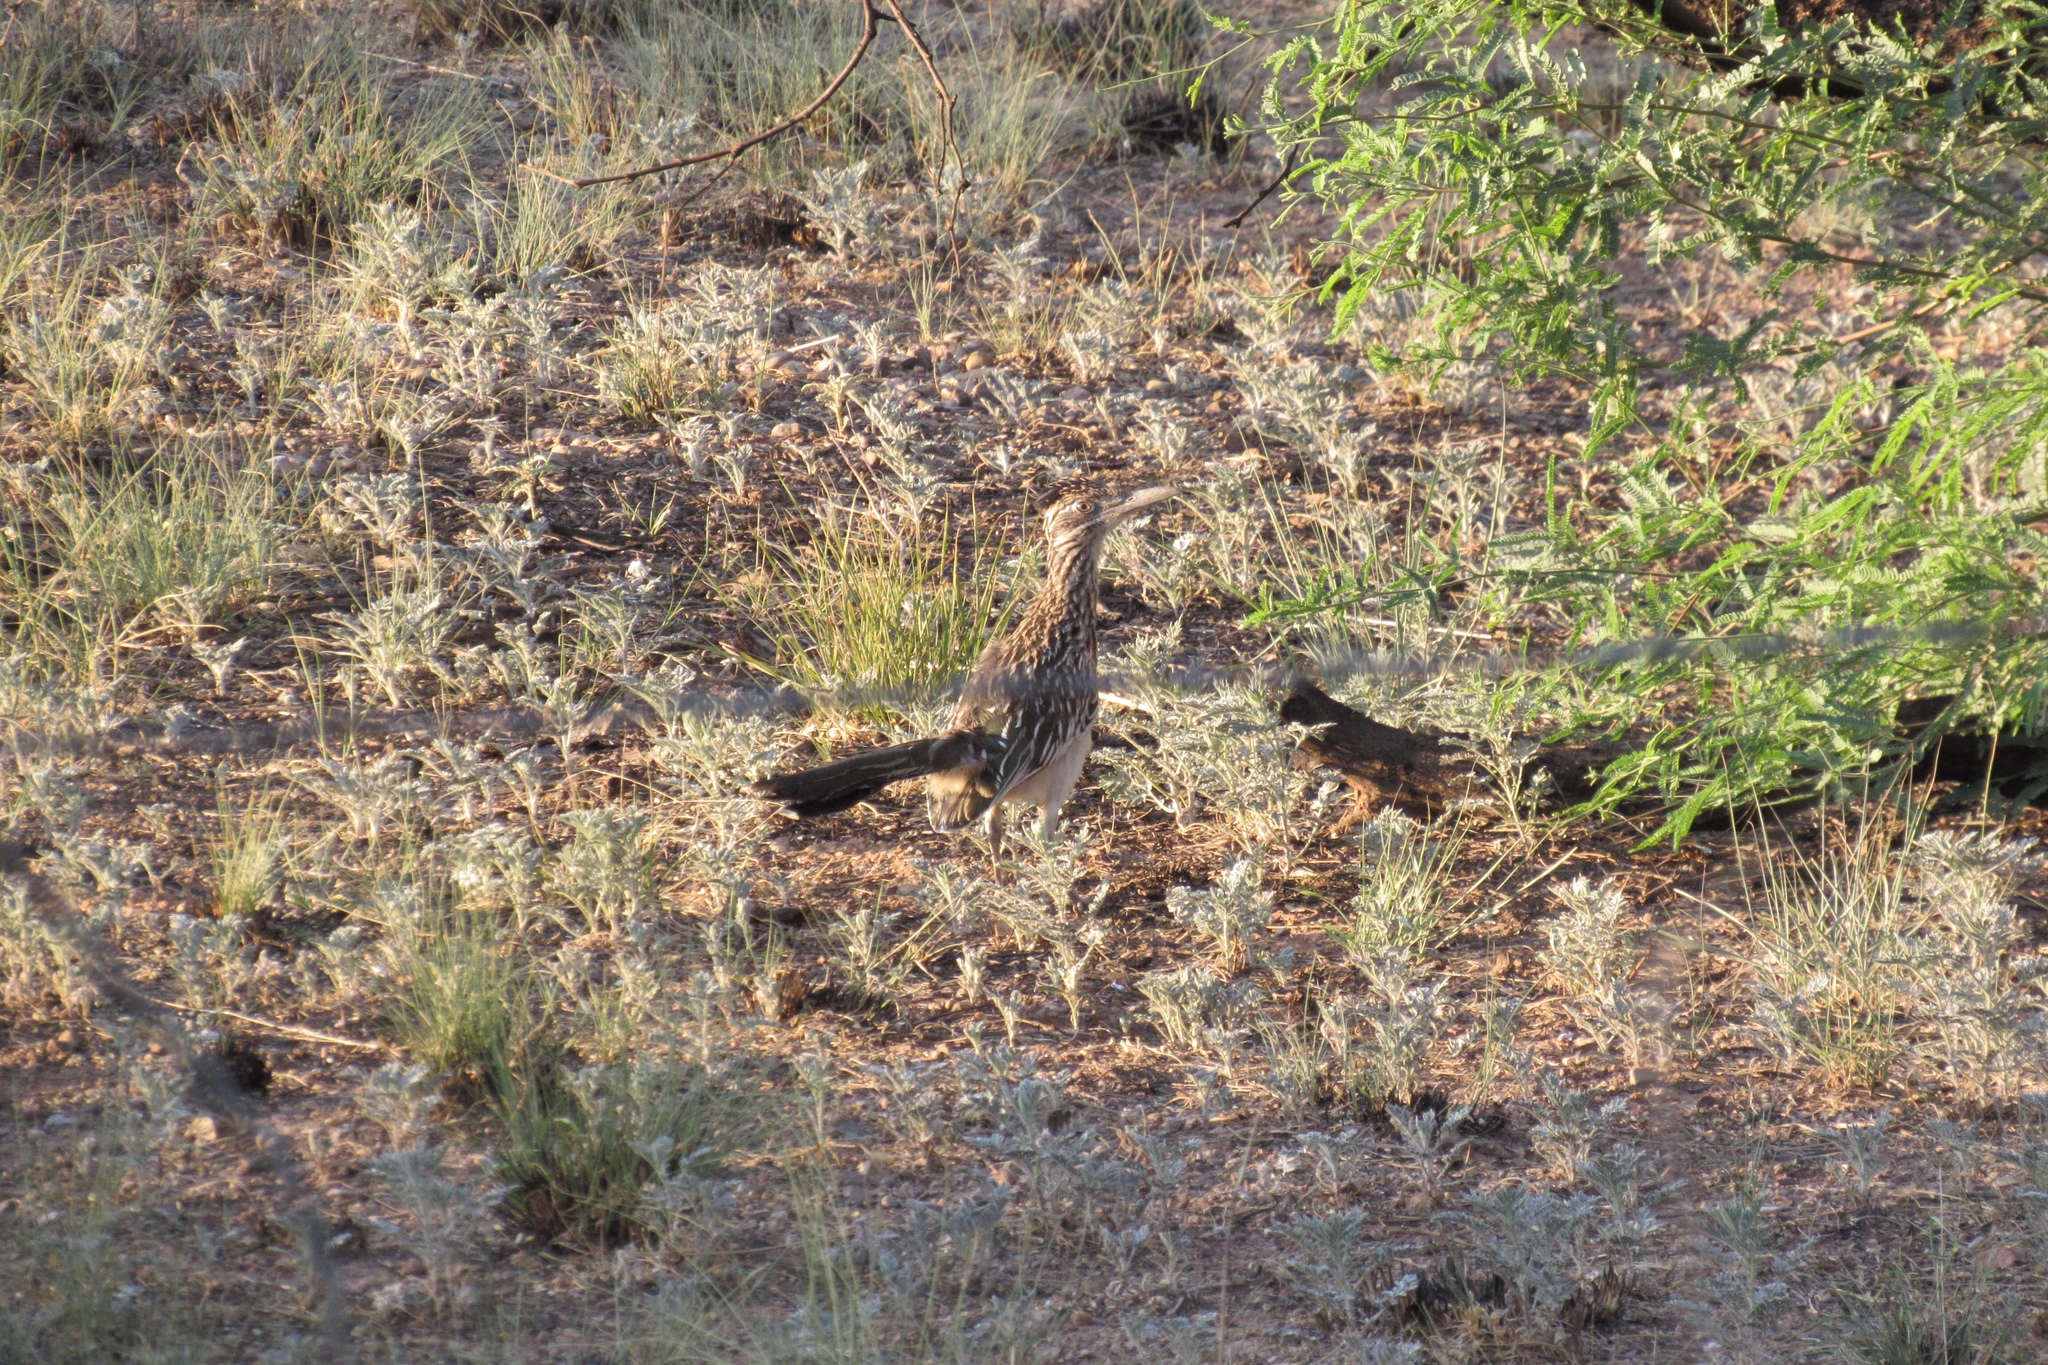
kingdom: Animalia
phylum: Chordata
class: Aves
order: Cuculiformes
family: Cuculidae
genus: Geococcyx
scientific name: Geococcyx californianus
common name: Greater roadrunner
